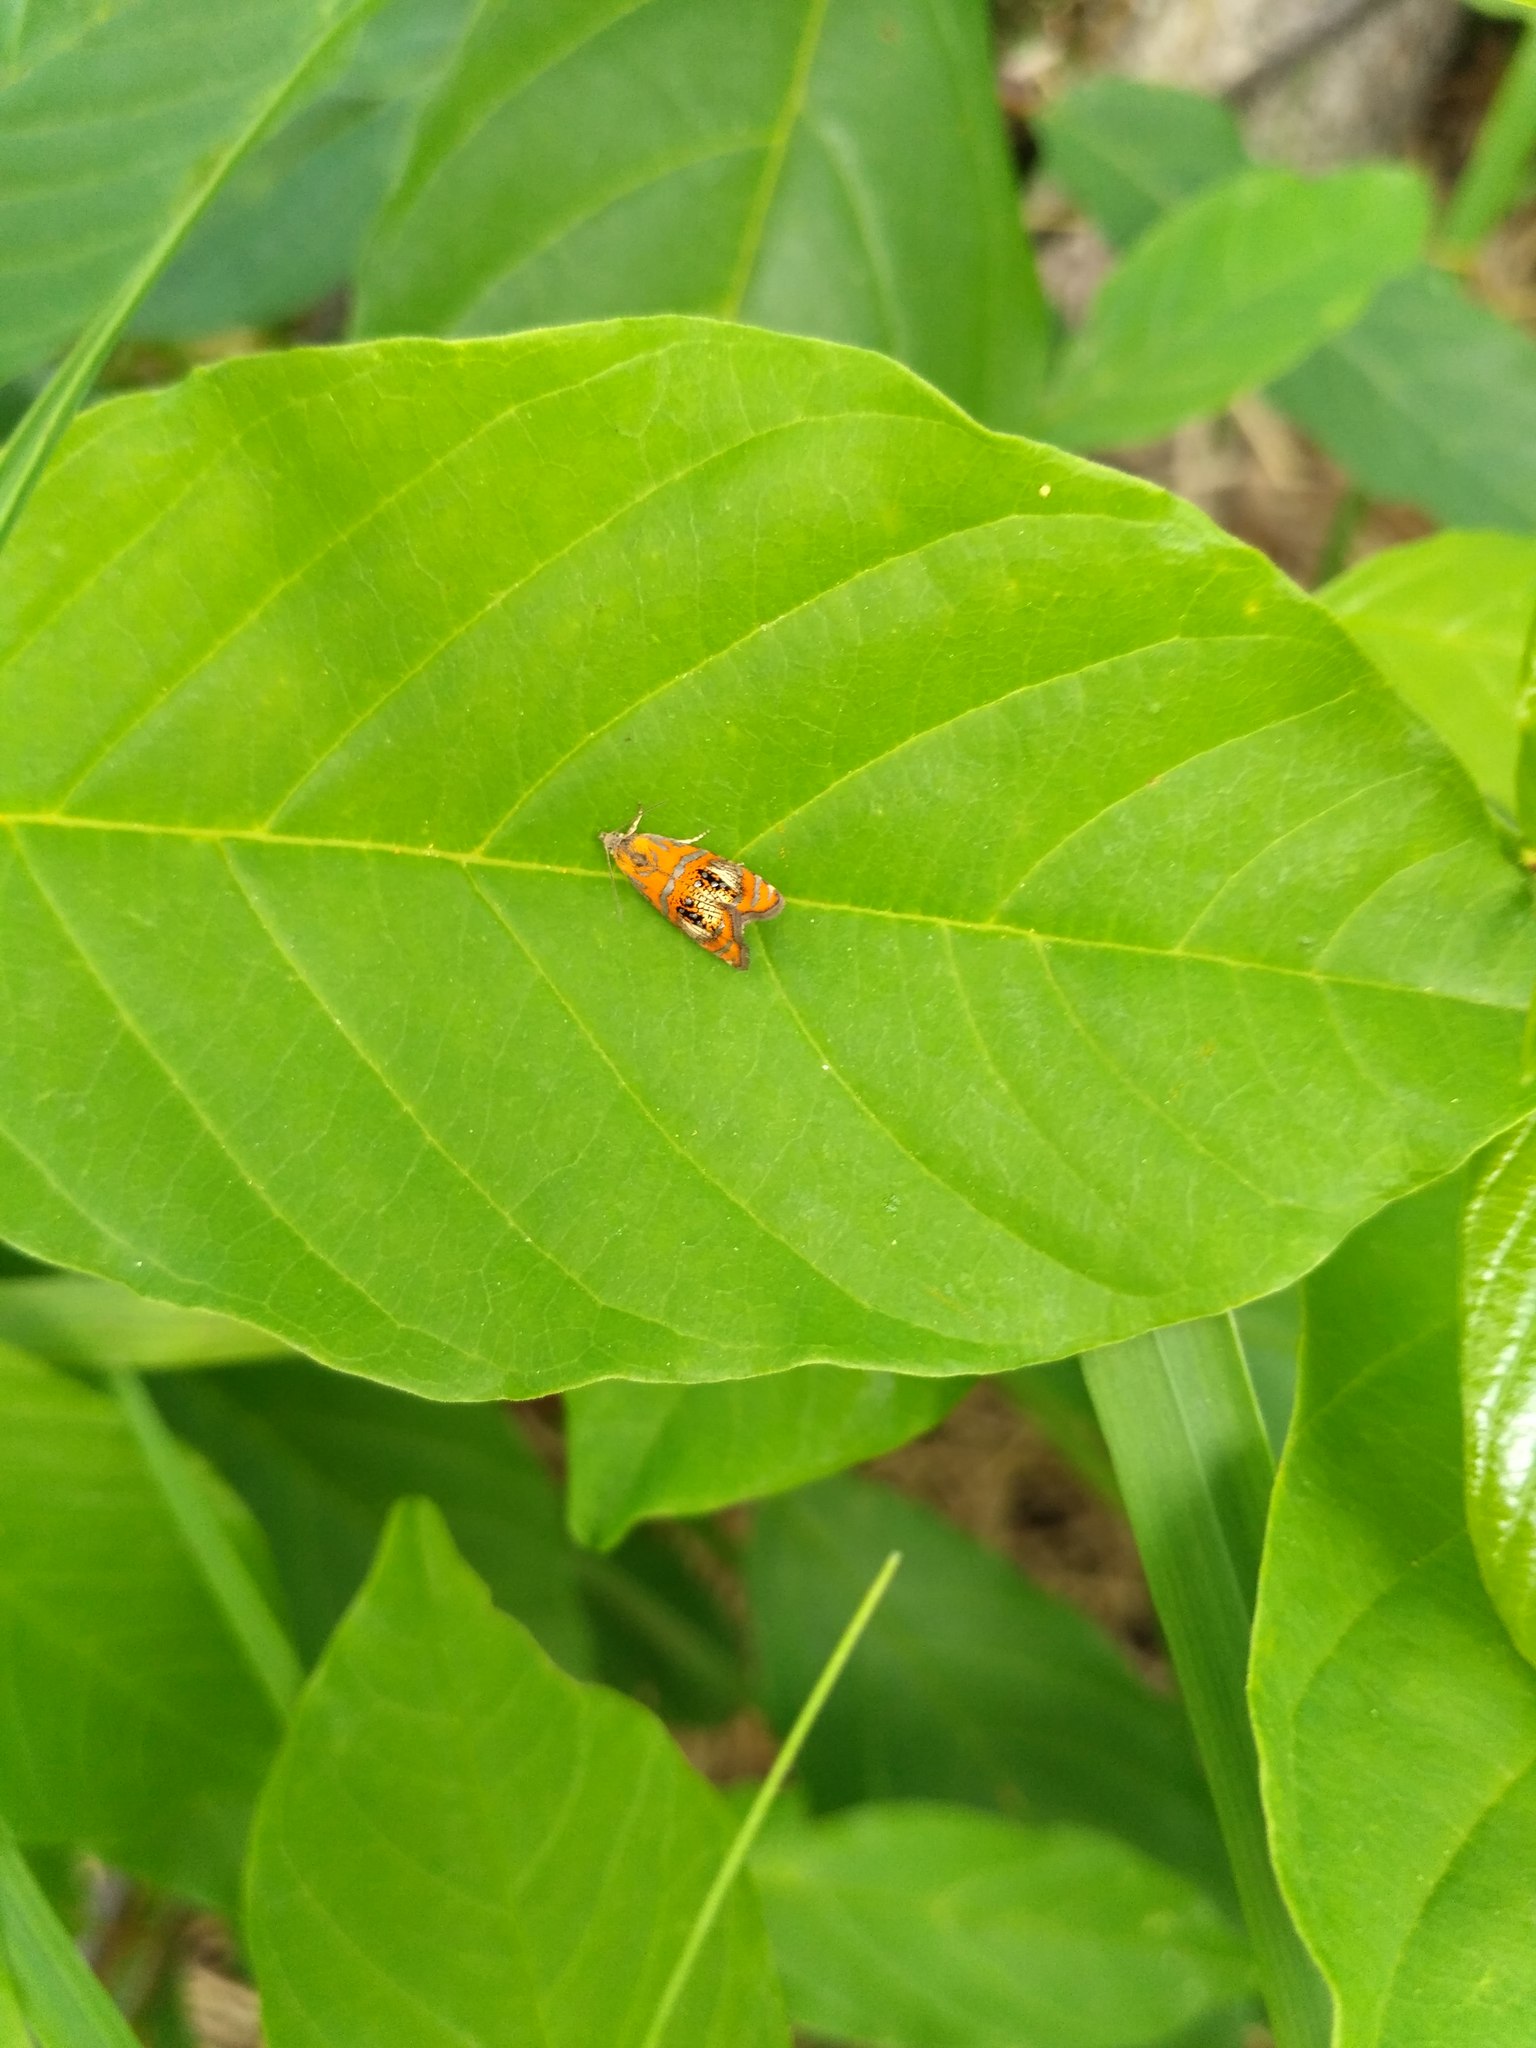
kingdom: Animalia
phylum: Arthropoda
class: Insecta
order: Lepidoptera
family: Tortricidae
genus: Olethreutes
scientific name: Olethreutes arcuella
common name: Arched marble
